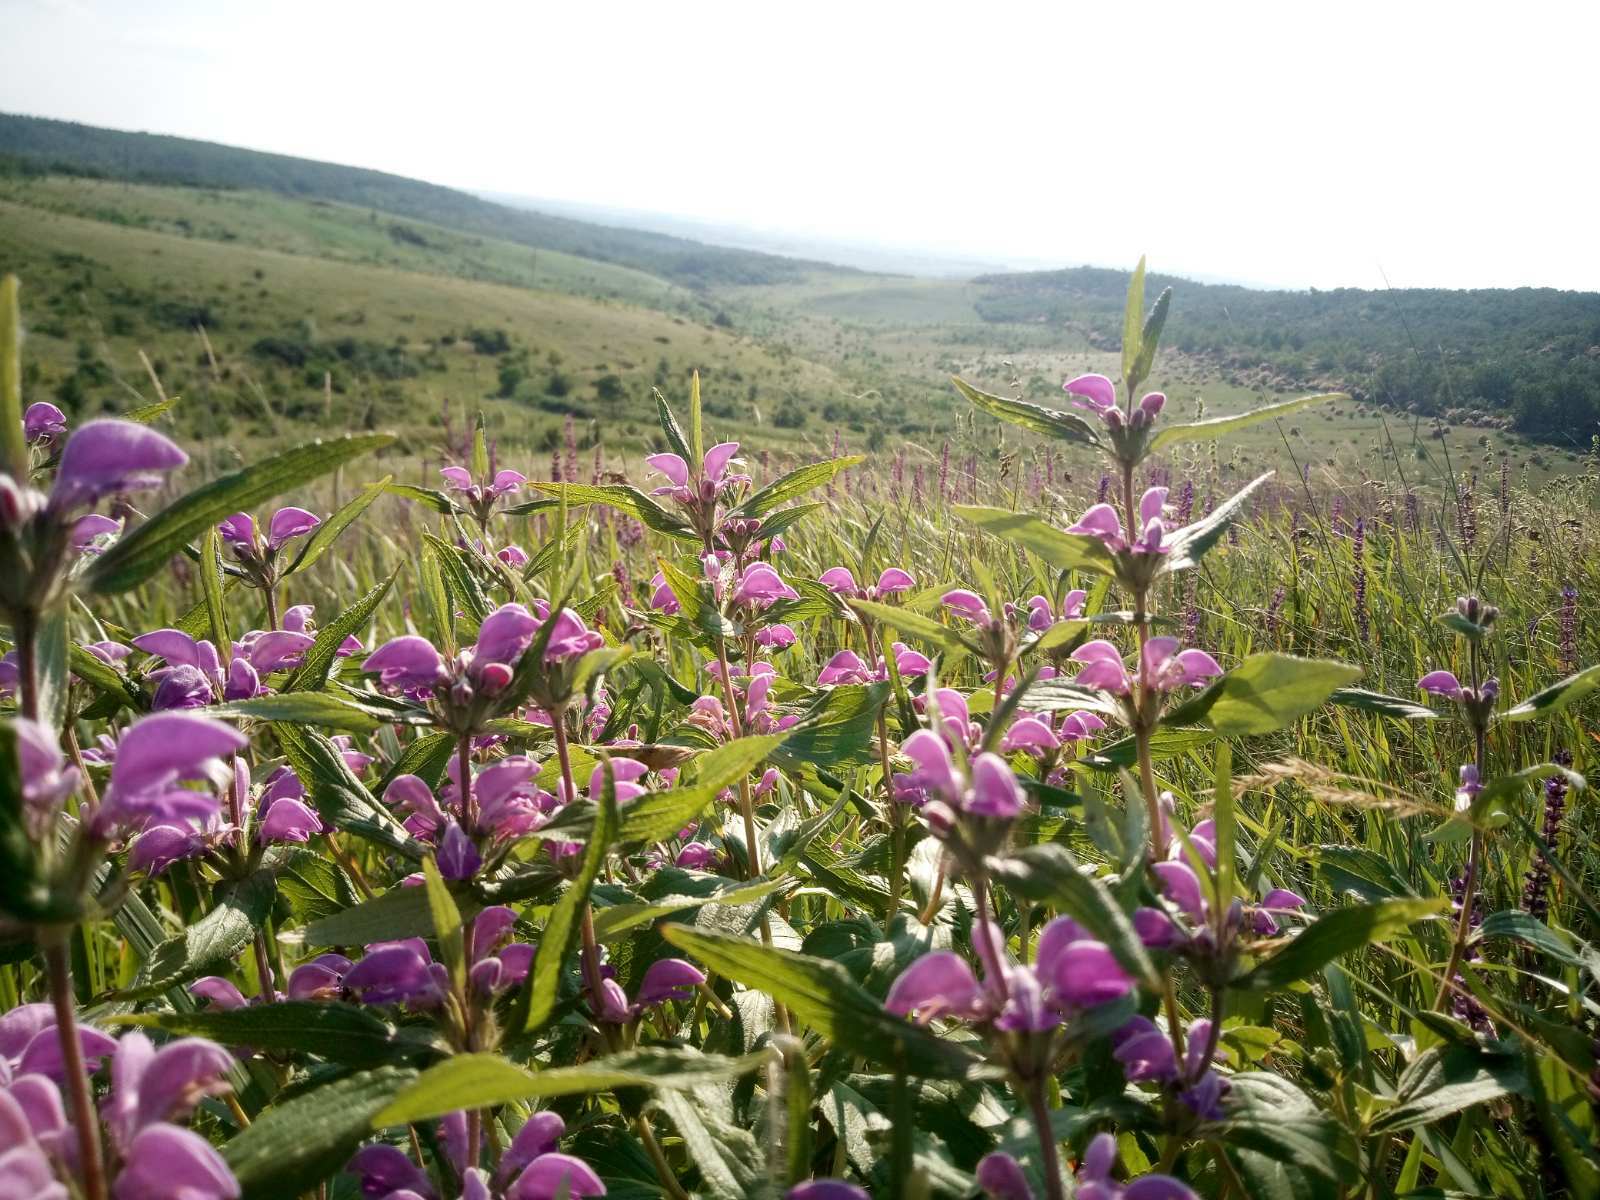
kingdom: Plantae
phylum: Tracheophyta
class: Magnoliopsida
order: Lamiales
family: Lamiaceae
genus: Phlomis
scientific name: Phlomis herba-venti
